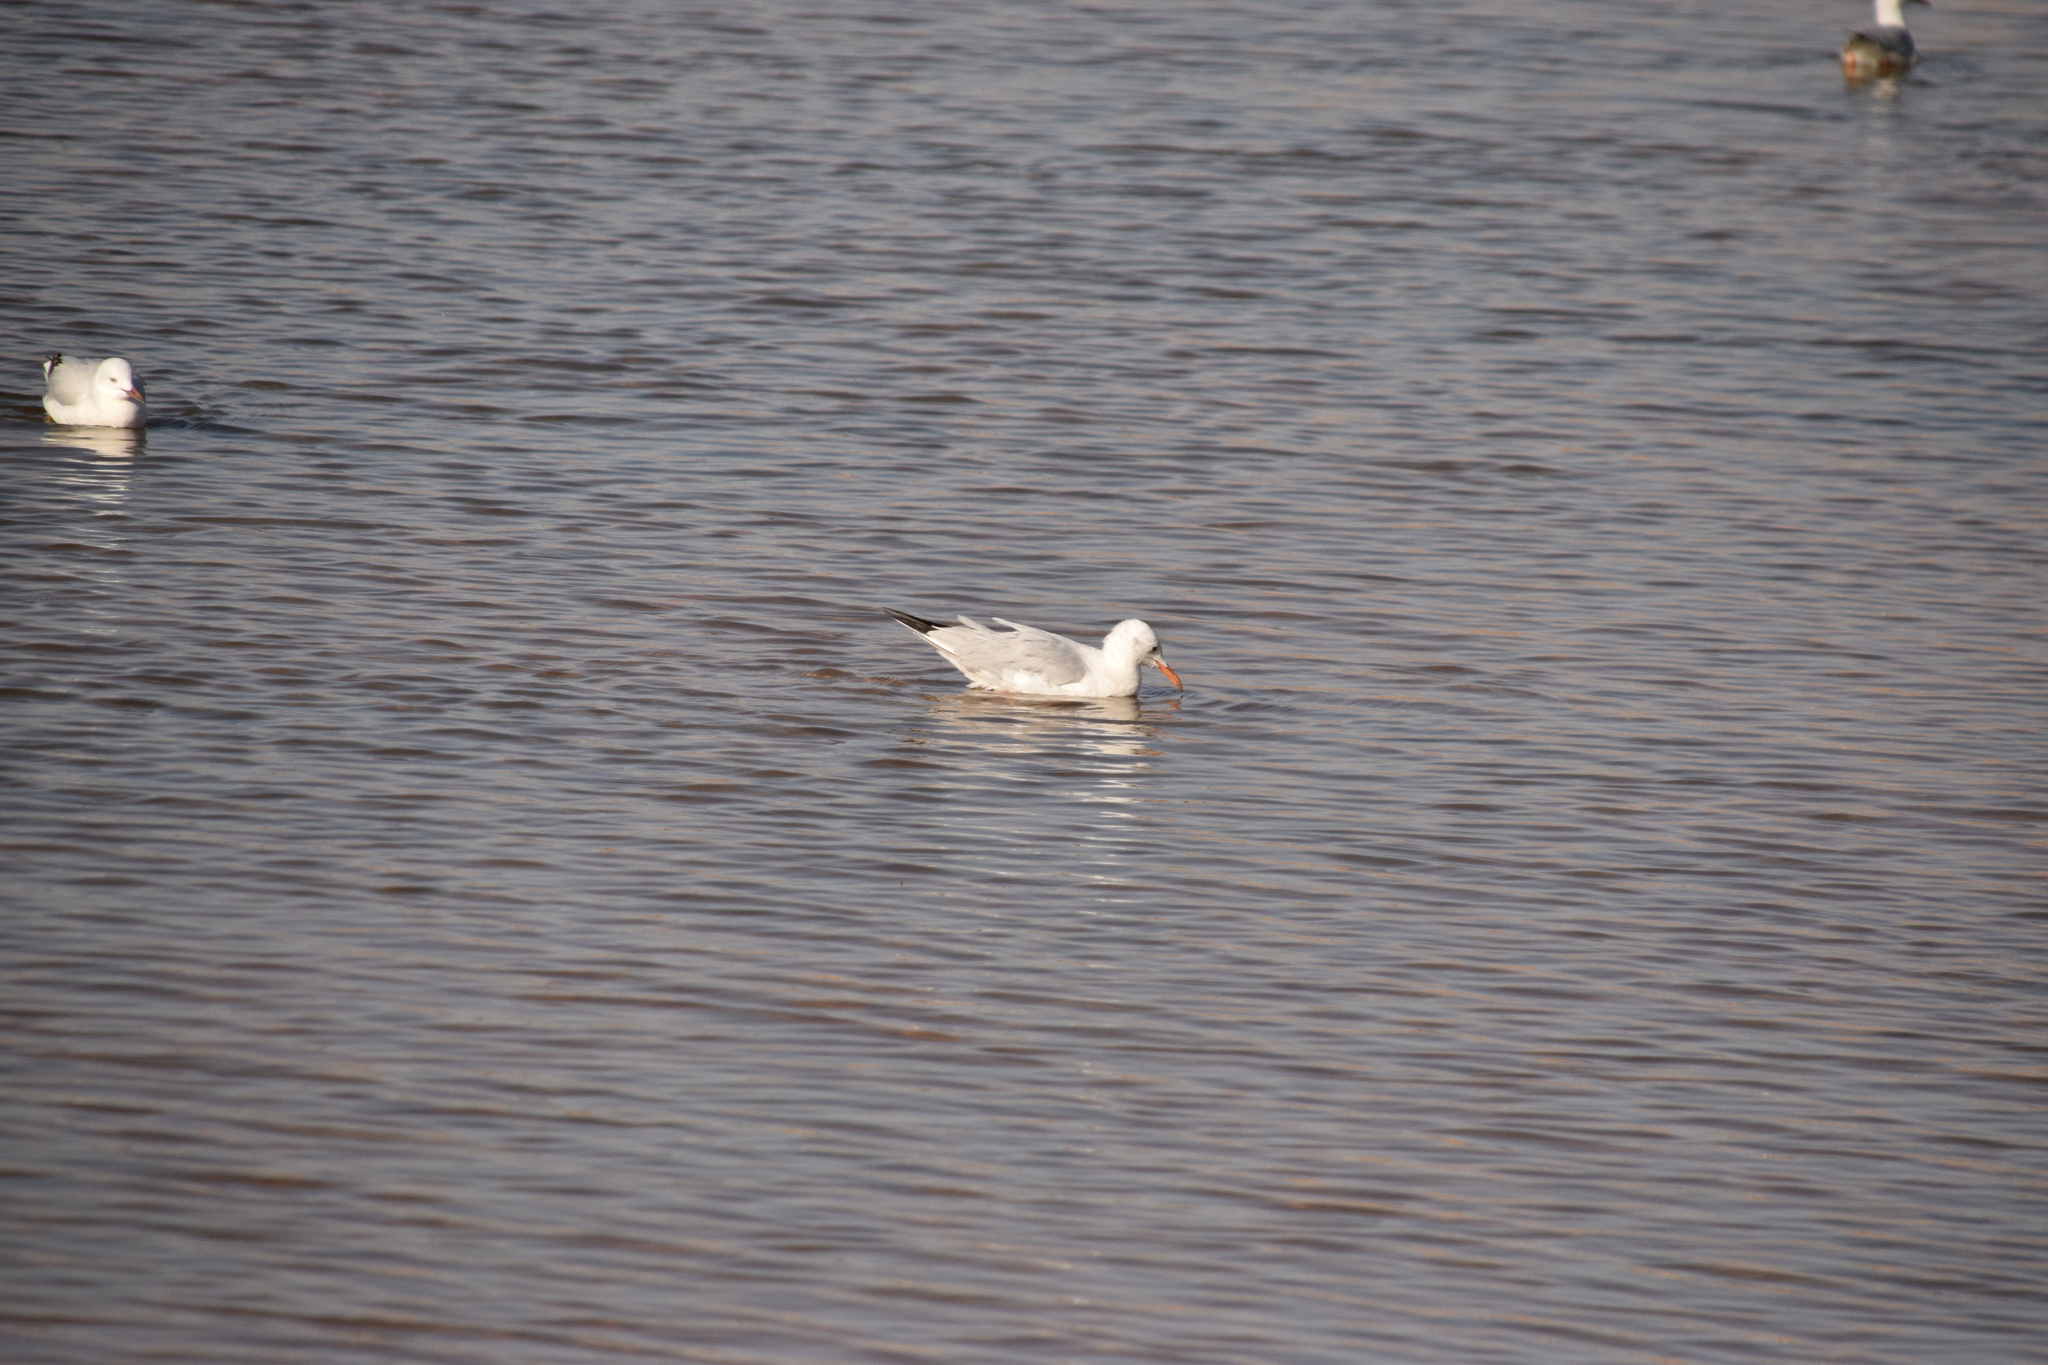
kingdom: Animalia
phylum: Chordata
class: Aves
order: Charadriiformes
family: Laridae
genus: Chroicocephalus
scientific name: Chroicocephalus genei
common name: Slender-billed gull
